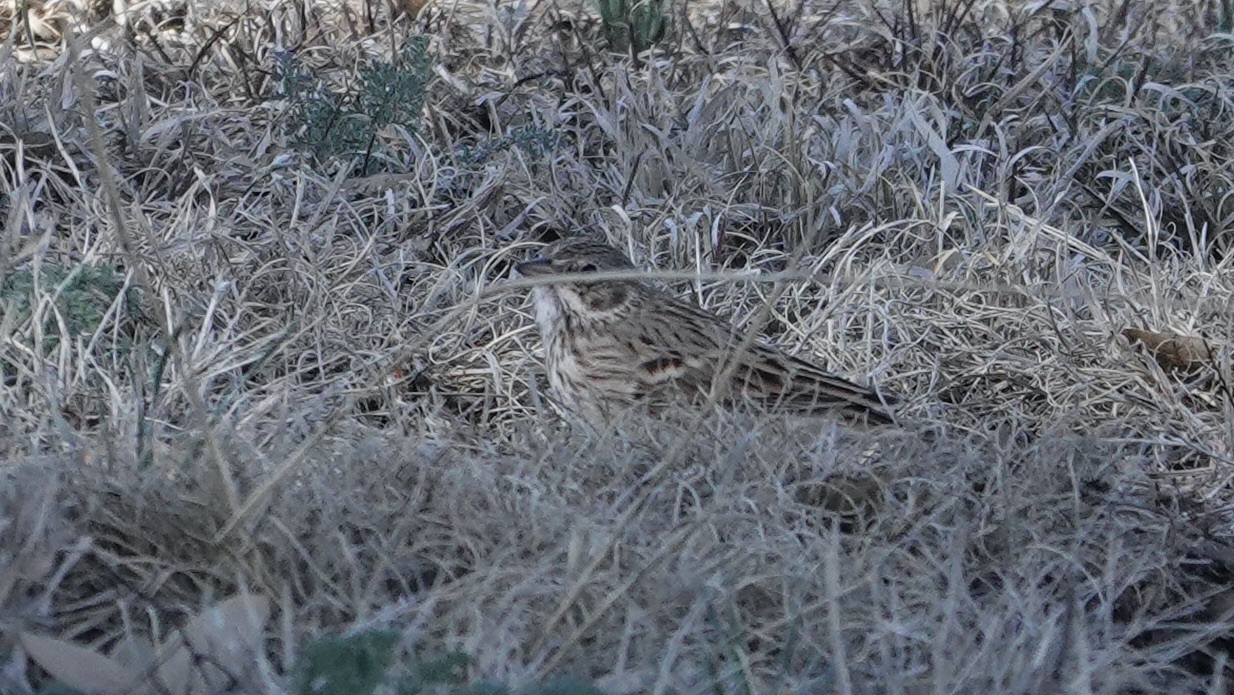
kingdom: Animalia
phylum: Chordata
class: Aves
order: Passeriformes
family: Passerellidae
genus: Pooecetes
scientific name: Pooecetes gramineus
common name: Vesper sparrow
